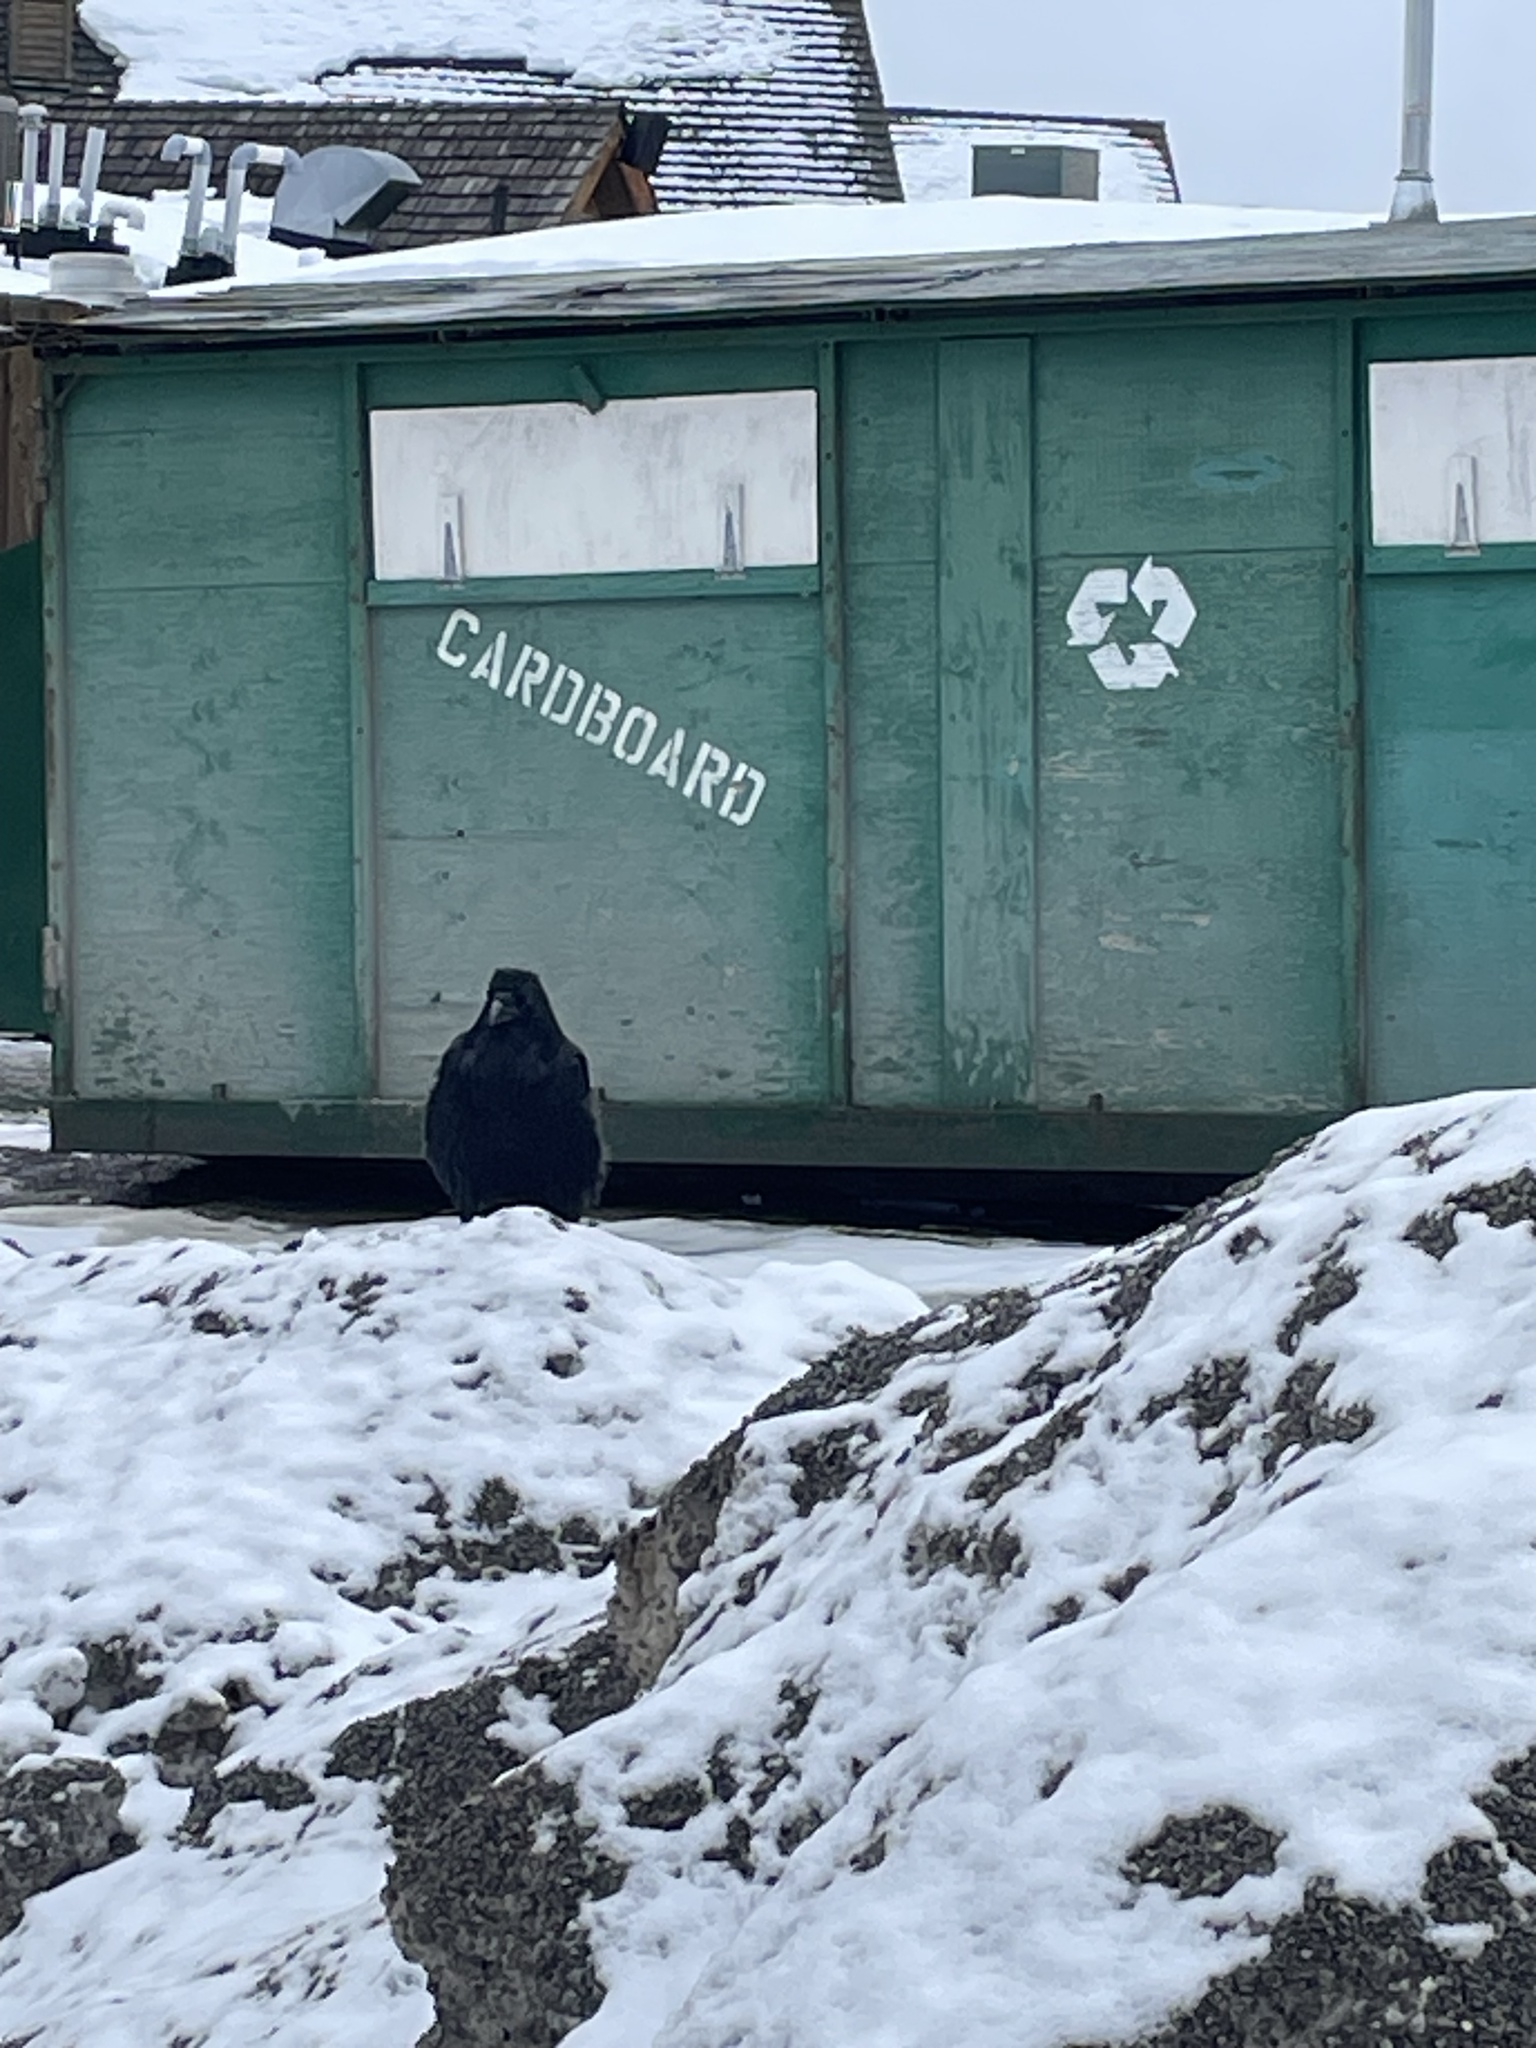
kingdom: Animalia
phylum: Chordata
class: Aves
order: Passeriformes
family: Corvidae
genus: Corvus
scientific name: Corvus corax
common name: Common raven
